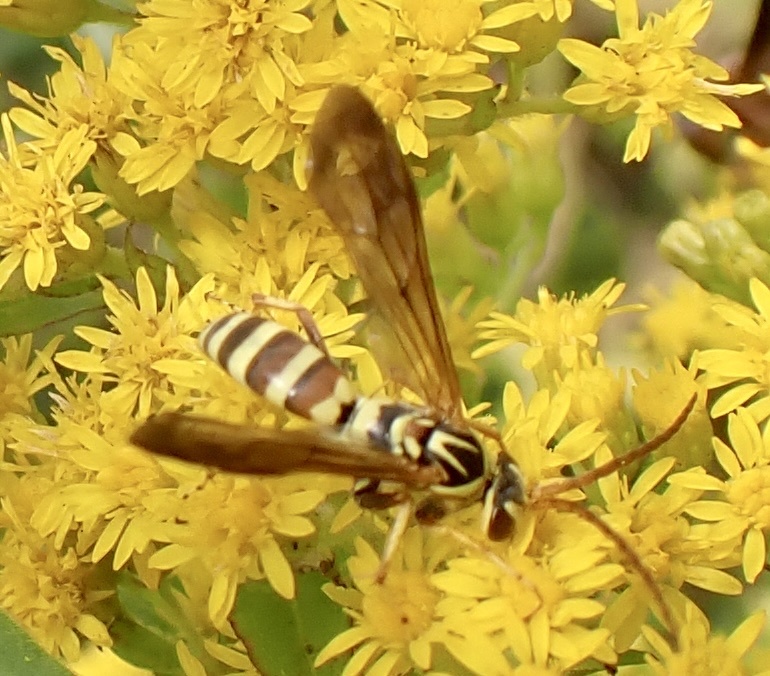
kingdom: Animalia
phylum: Arthropoda
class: Insecta
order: Hymenoptera
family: Pompilidae
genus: Poecilopompilus
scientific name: Poecilopompilus interruptus
